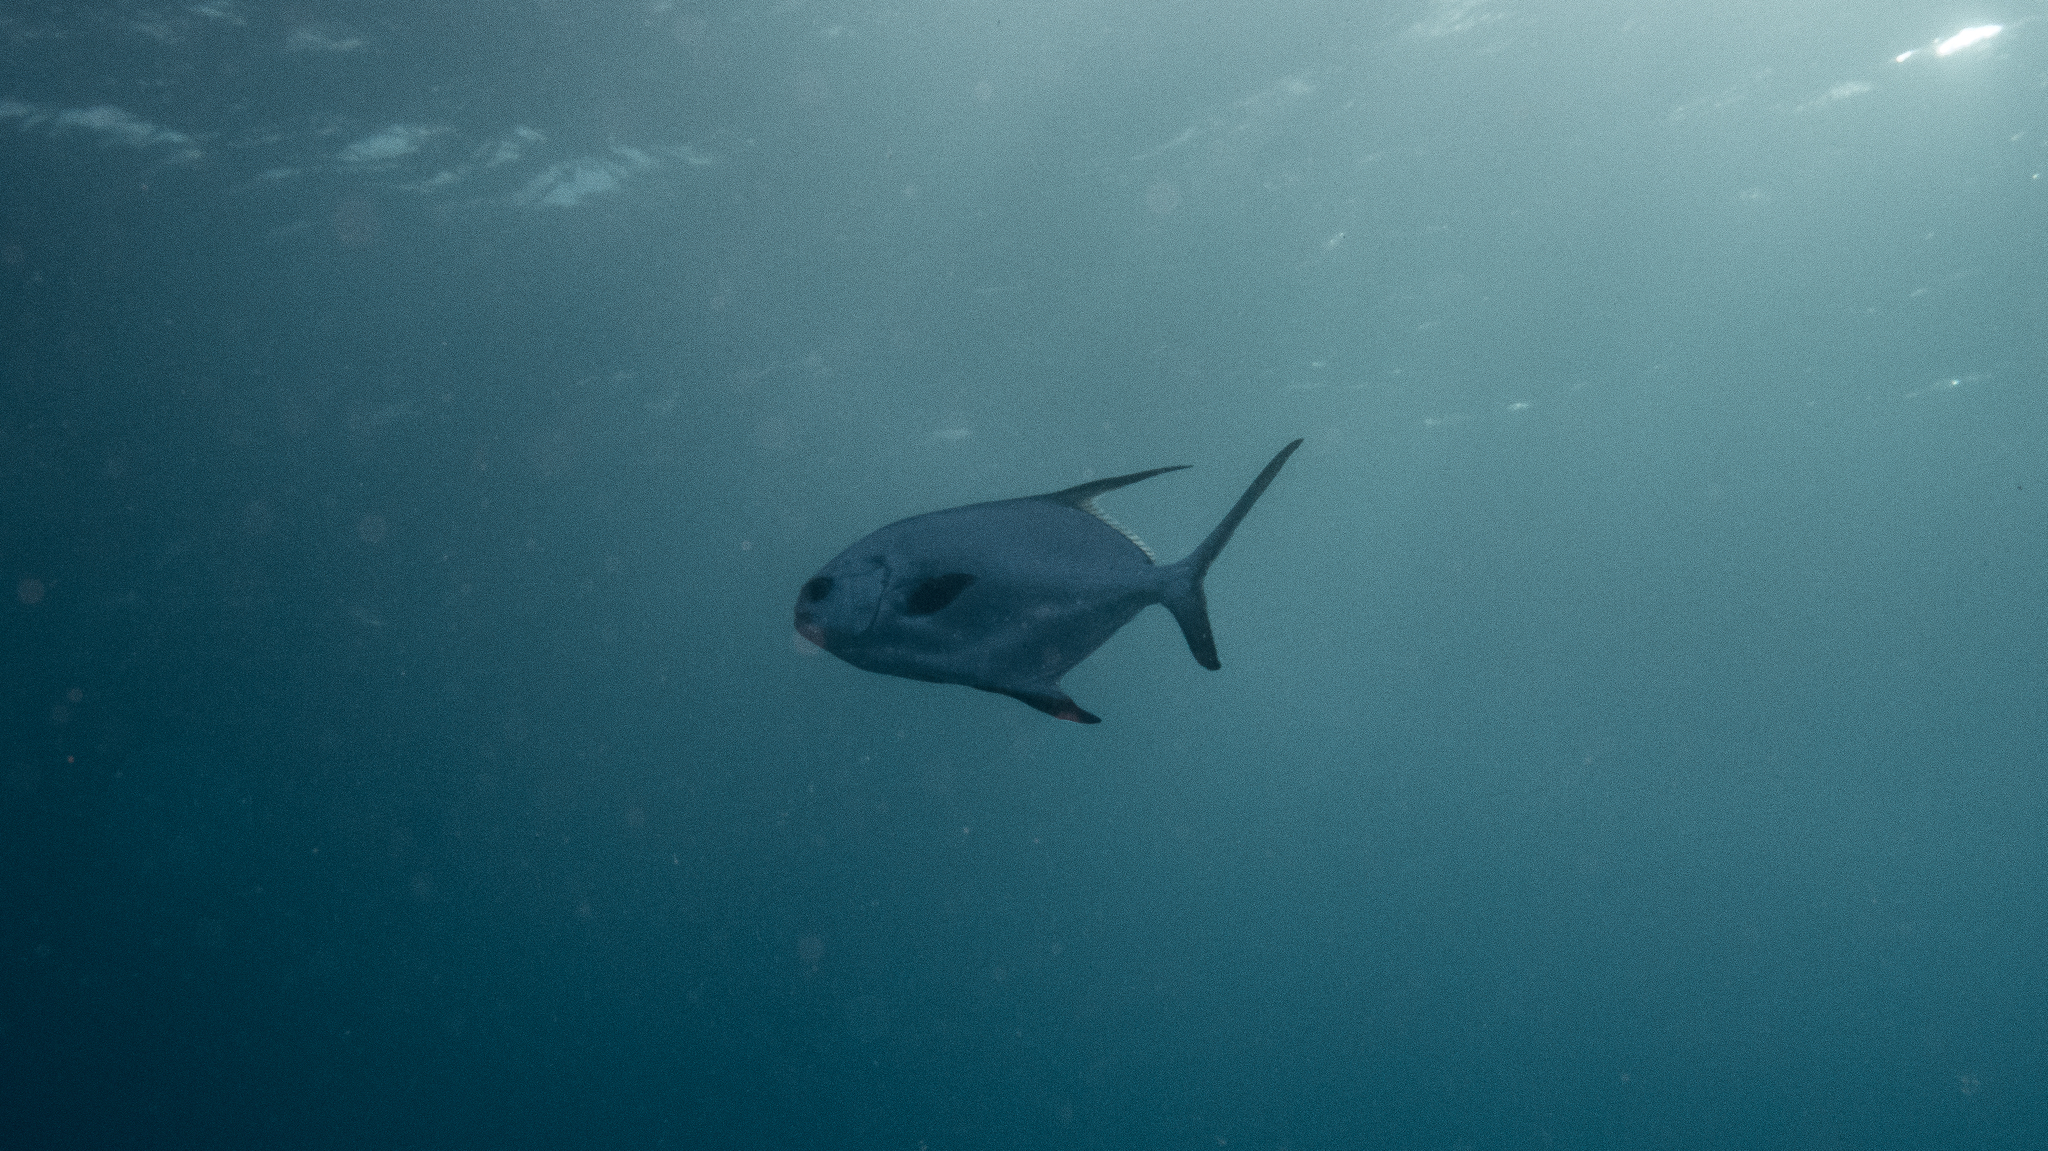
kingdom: Animalia
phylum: Chordata
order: Perciformes
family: Carangidae
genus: Trachinotus
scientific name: Trachinotus blochii
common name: Snubnose pompano
